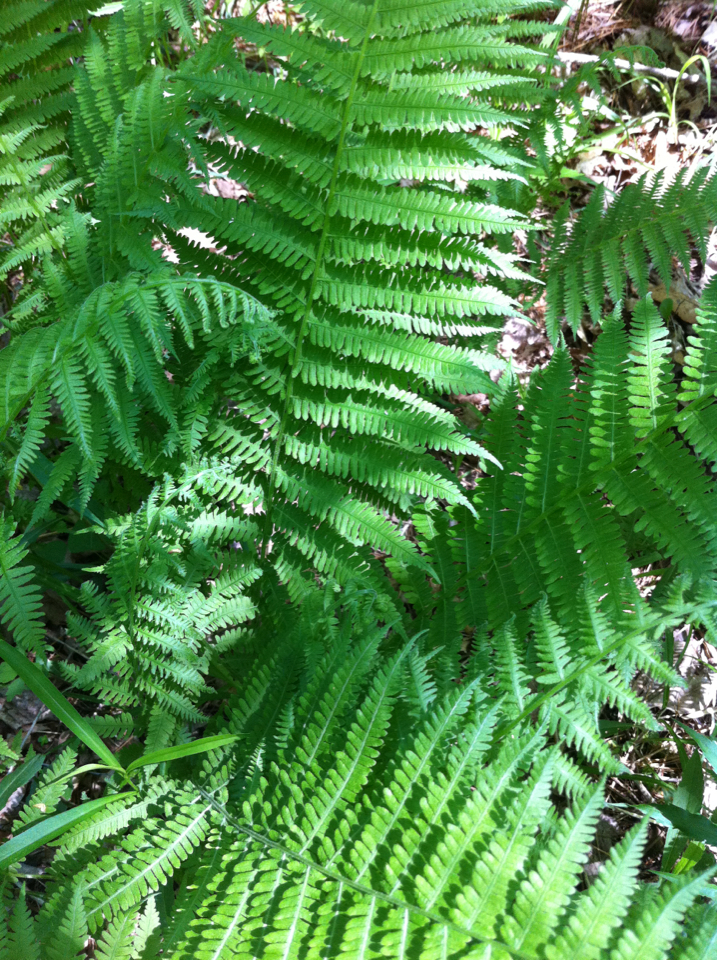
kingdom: Plantae
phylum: Tracheophyta
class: Polypodiopsida
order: Polypodiales
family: Athyriaceae
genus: Deparia
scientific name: Deparia acrostichoides
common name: Silver false spleenwort
